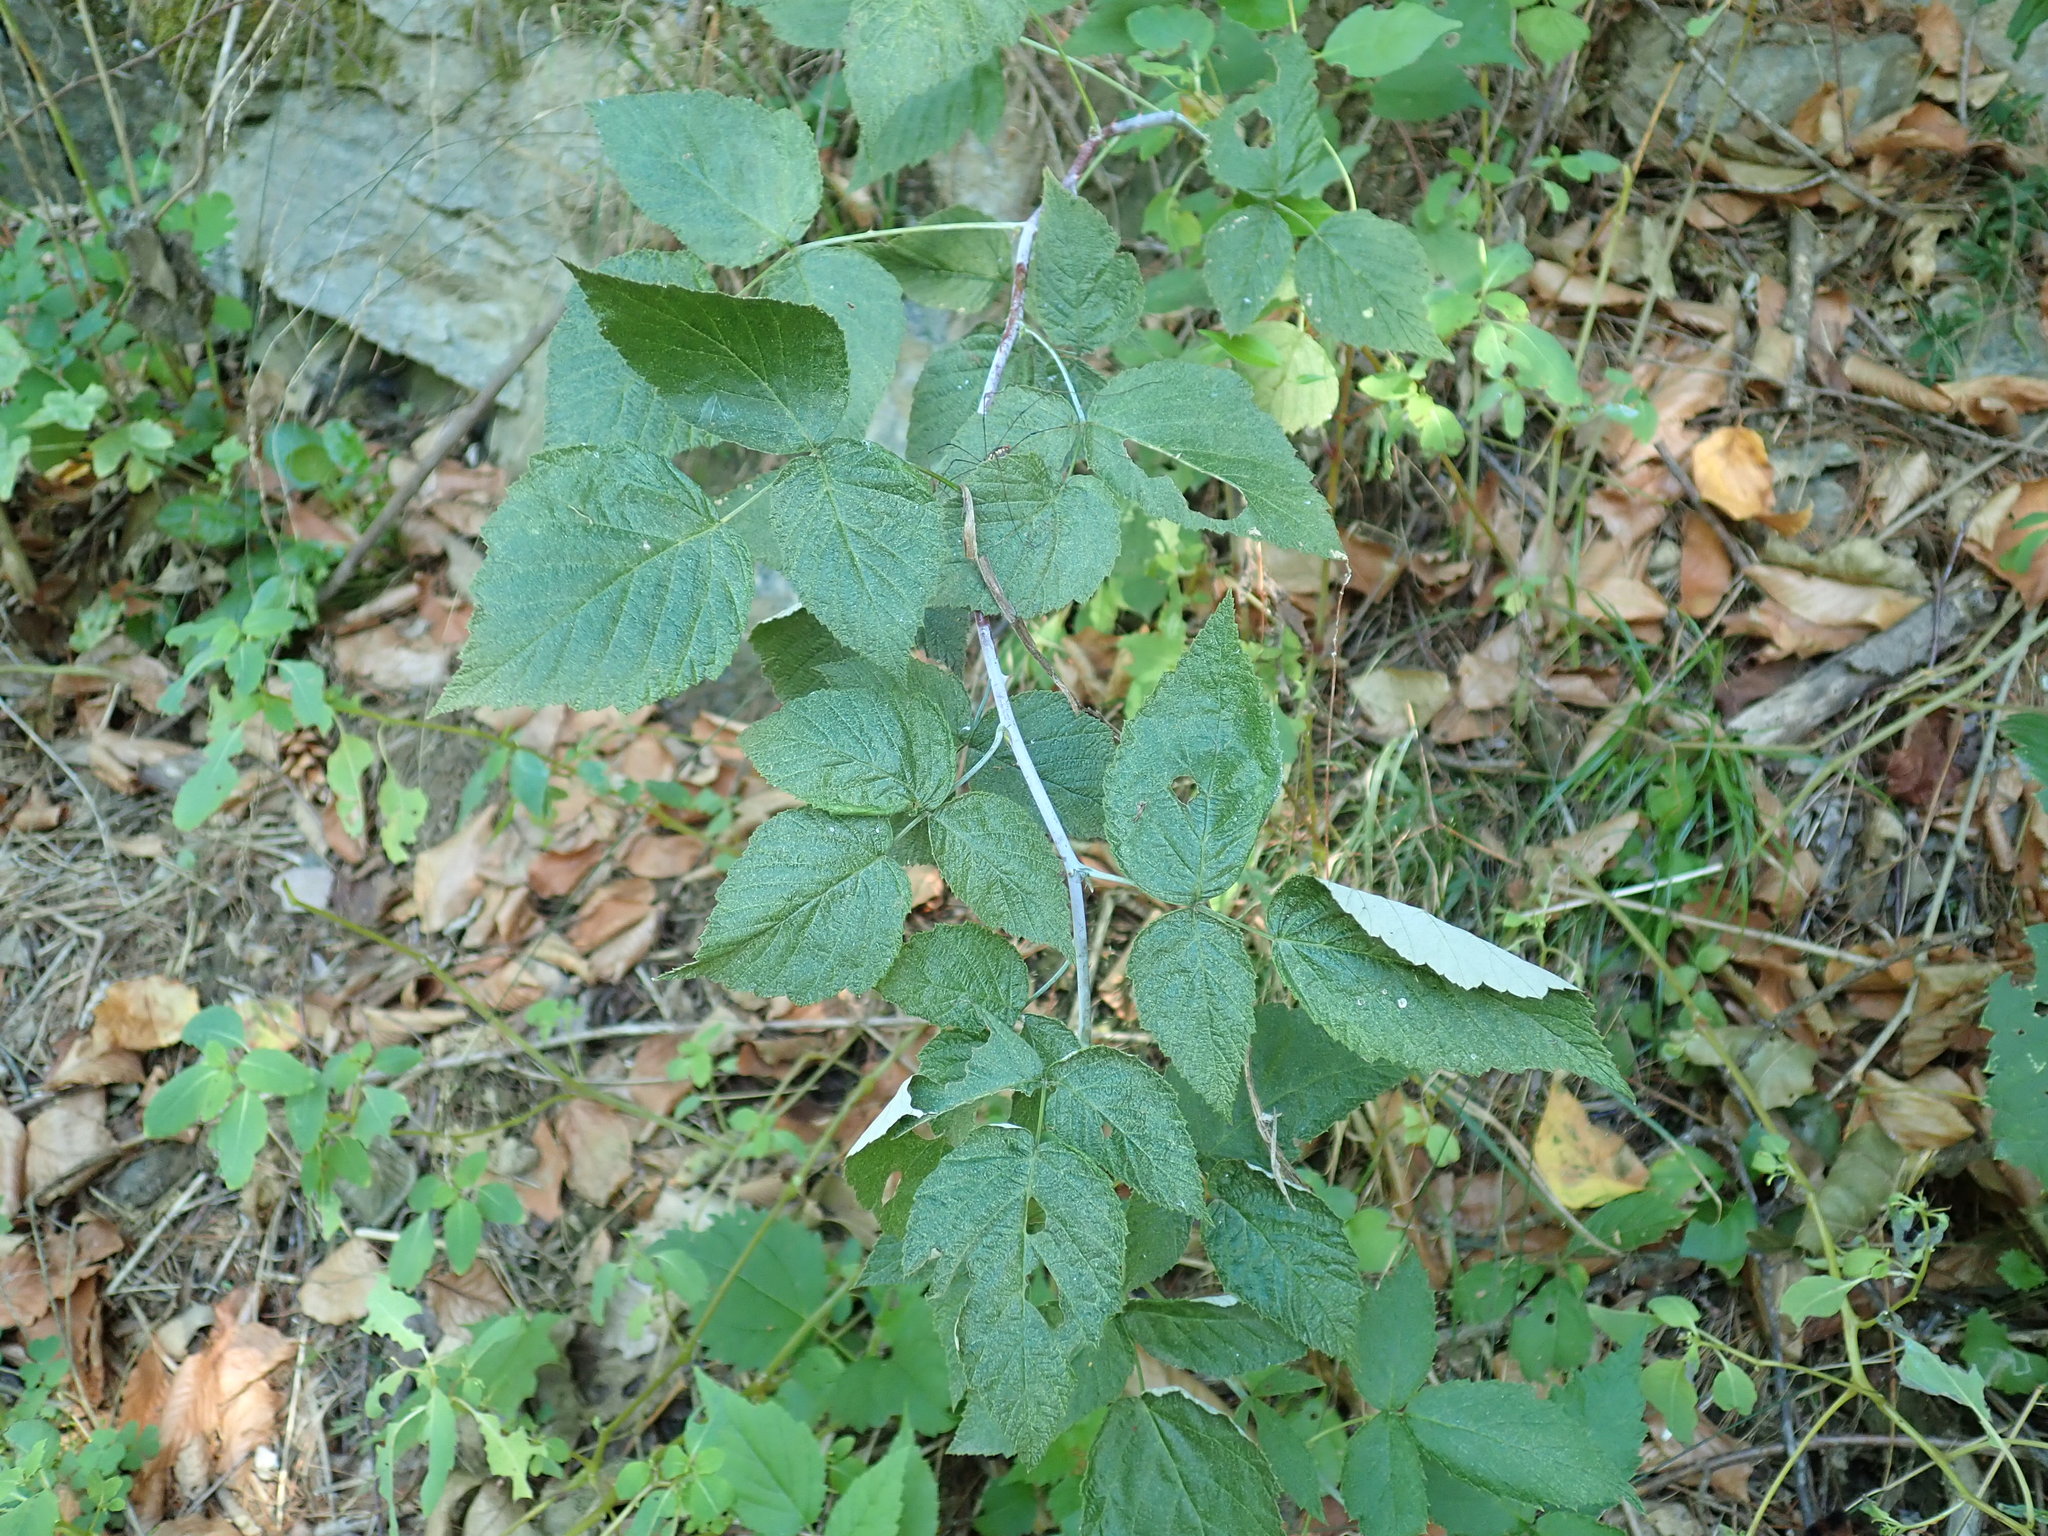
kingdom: Plantae
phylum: Tracheophyta
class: Magnoliopsida
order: Rosales
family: Rosaceae
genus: Rubus
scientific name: Rubus occidentalis
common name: Black raspberry
